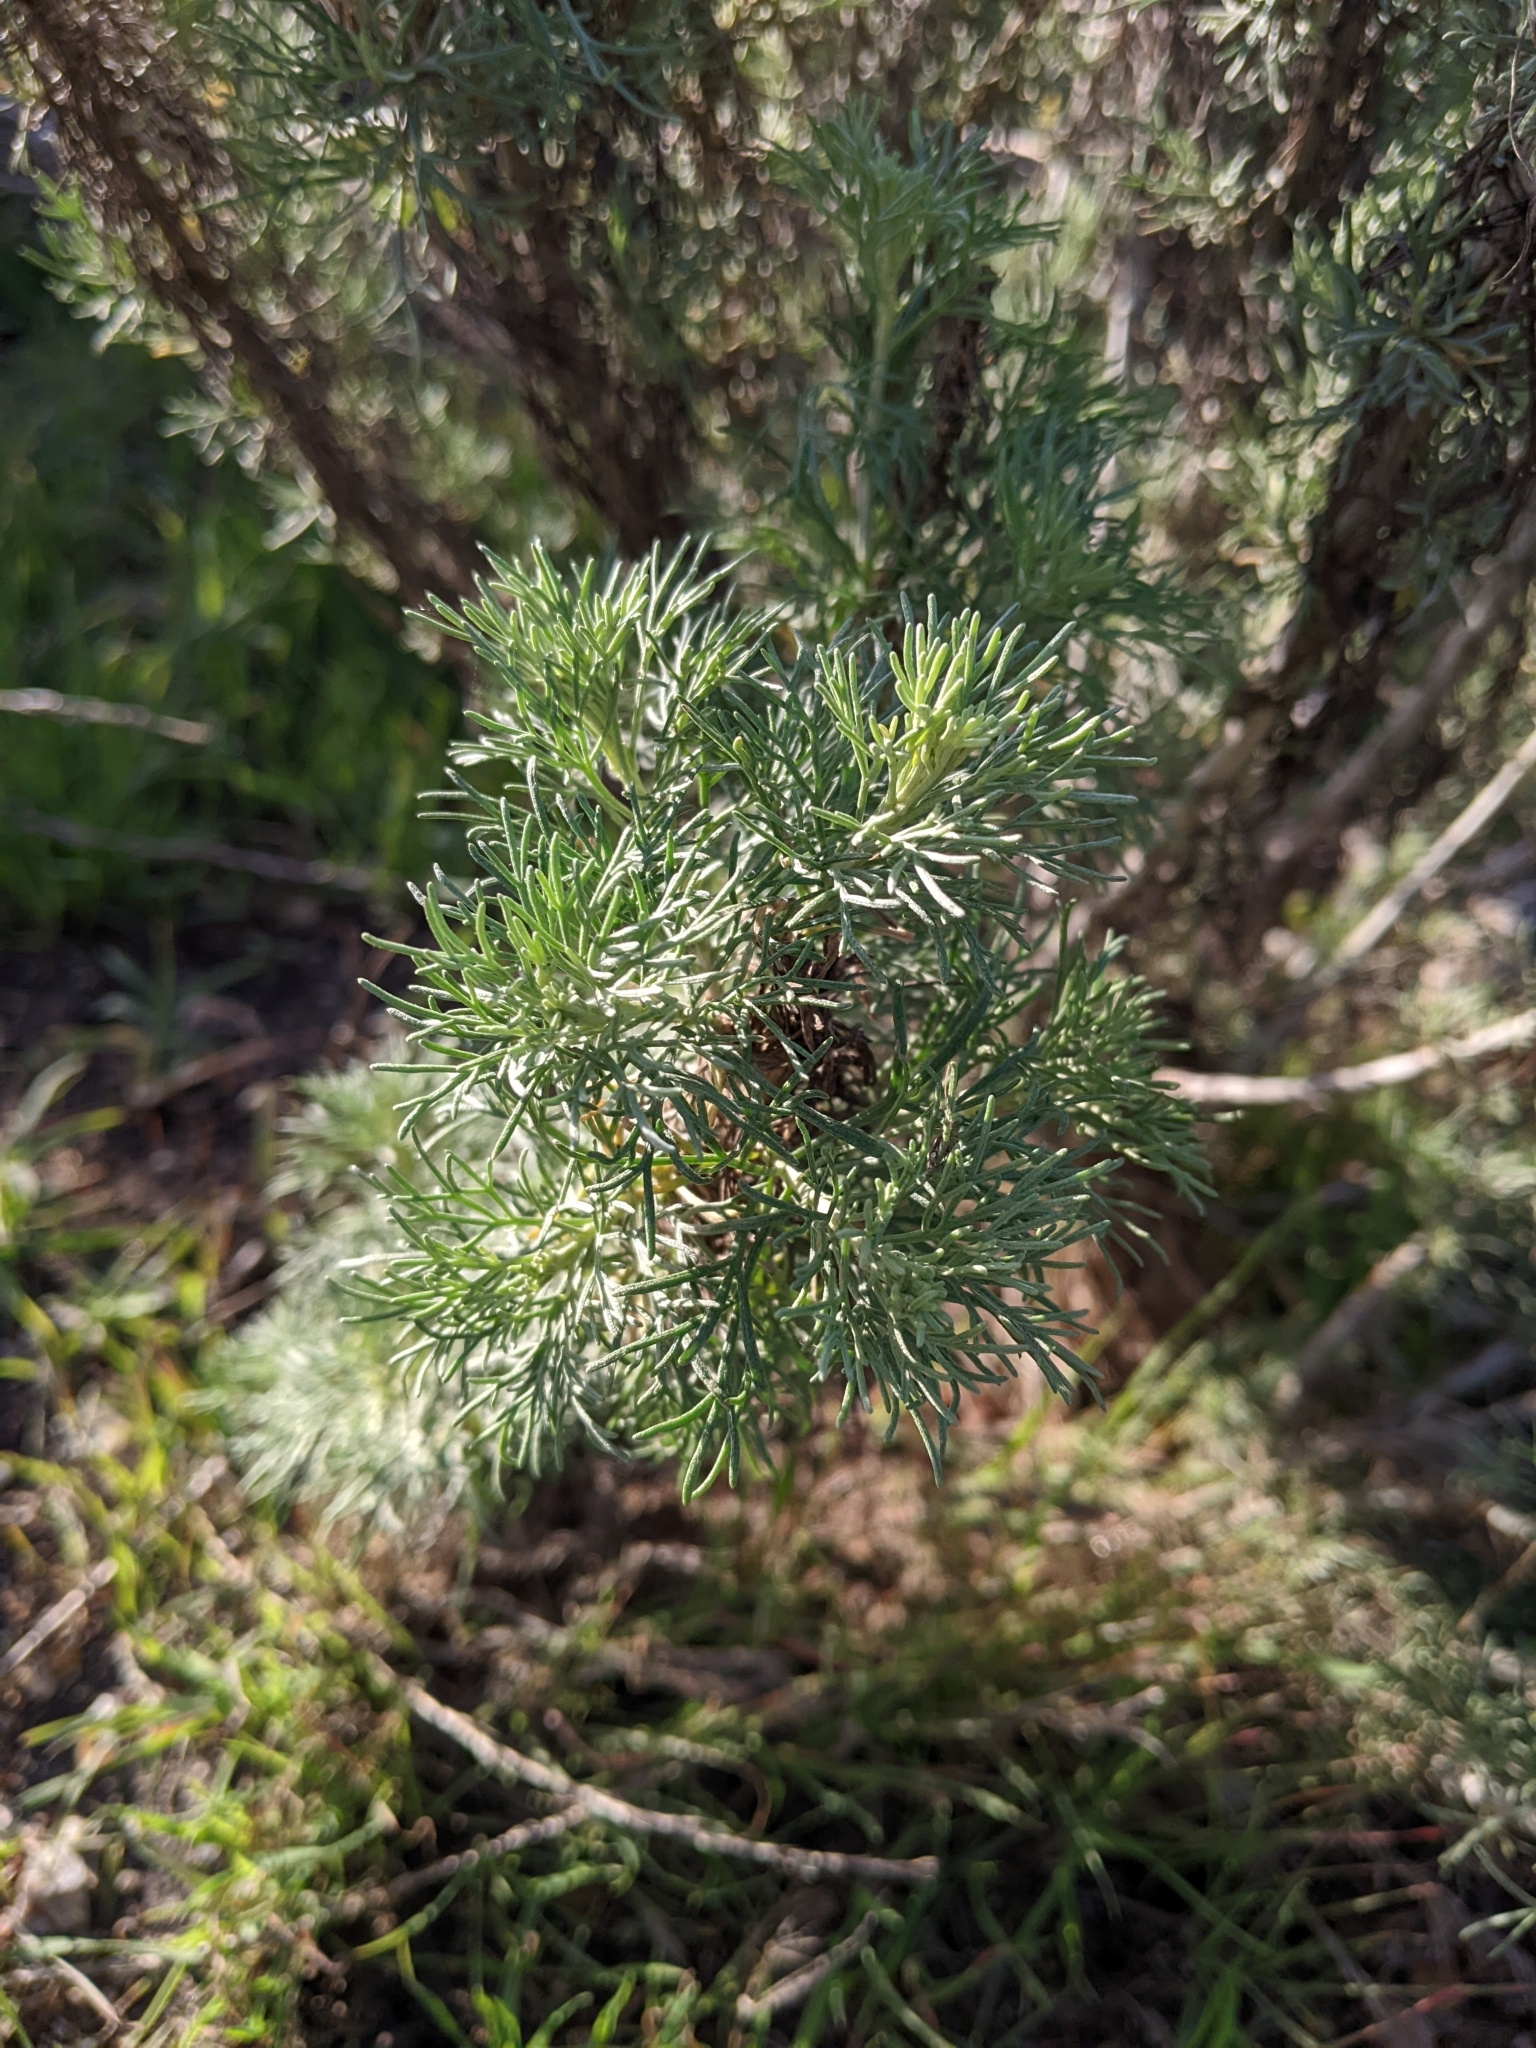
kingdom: Plantae
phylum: Tracheophyta
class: Magnoliopsida
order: Asterales
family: Asteraceae
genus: Artemisia
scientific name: Artemisia californica
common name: California sagebrush
